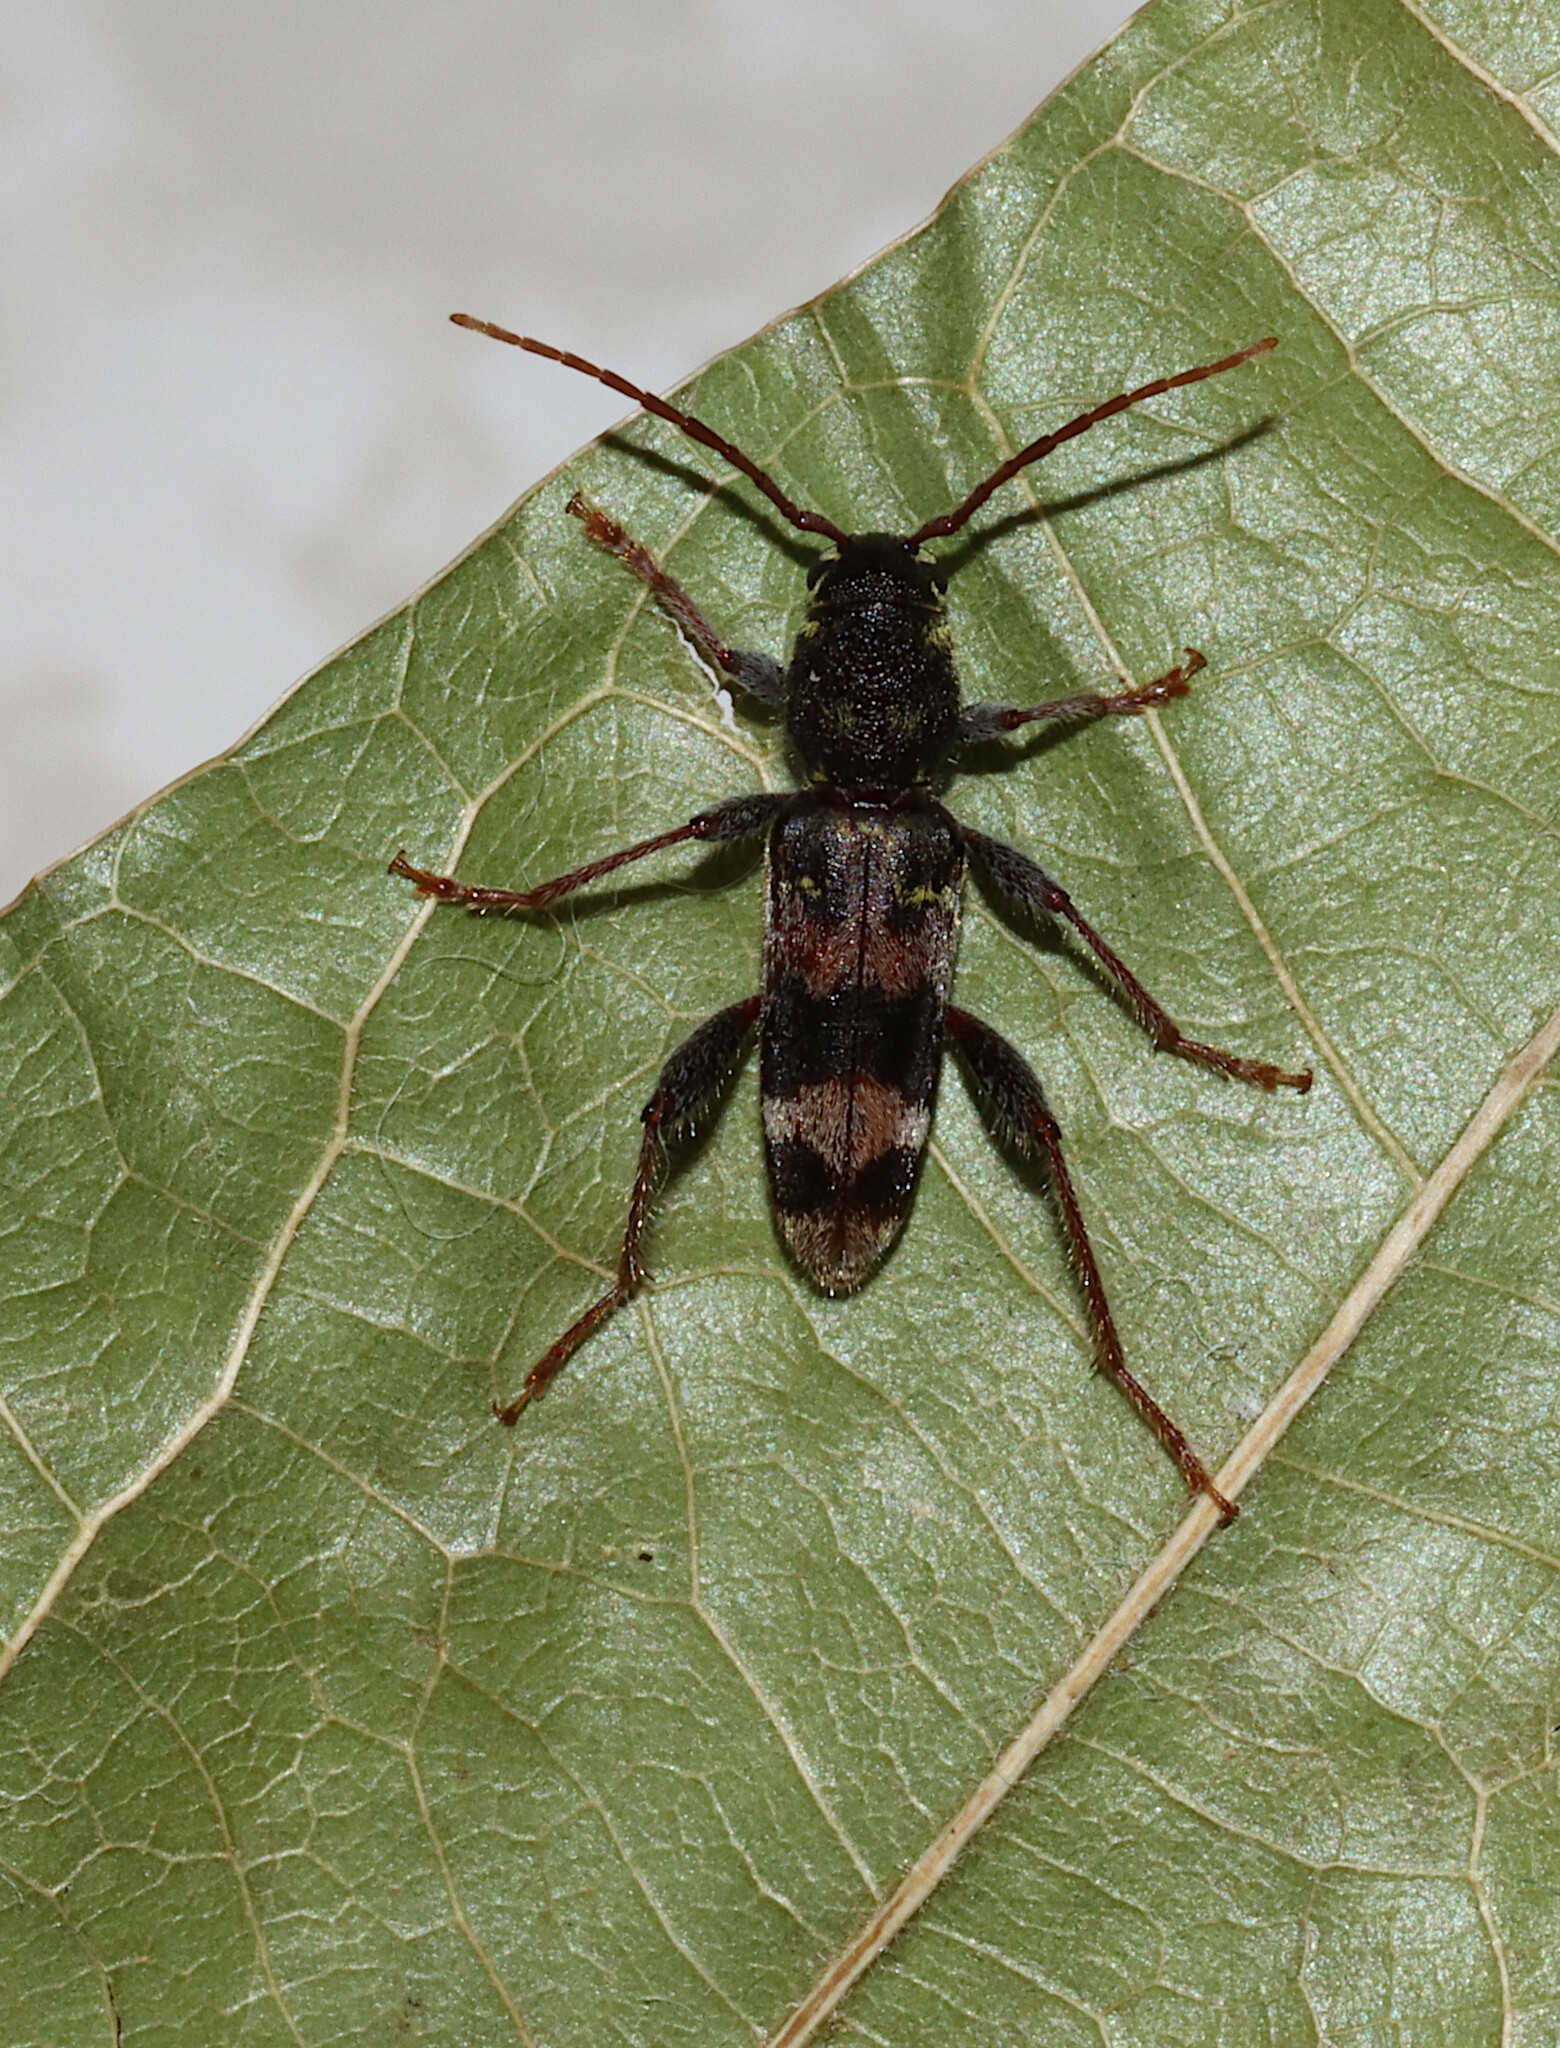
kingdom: Animalia
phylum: Arthropoda
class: Insecta
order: Coleoptera
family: Cerambycidae
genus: Xylotrechus
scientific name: Xylotrechus colonus
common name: Long-horned beetle
